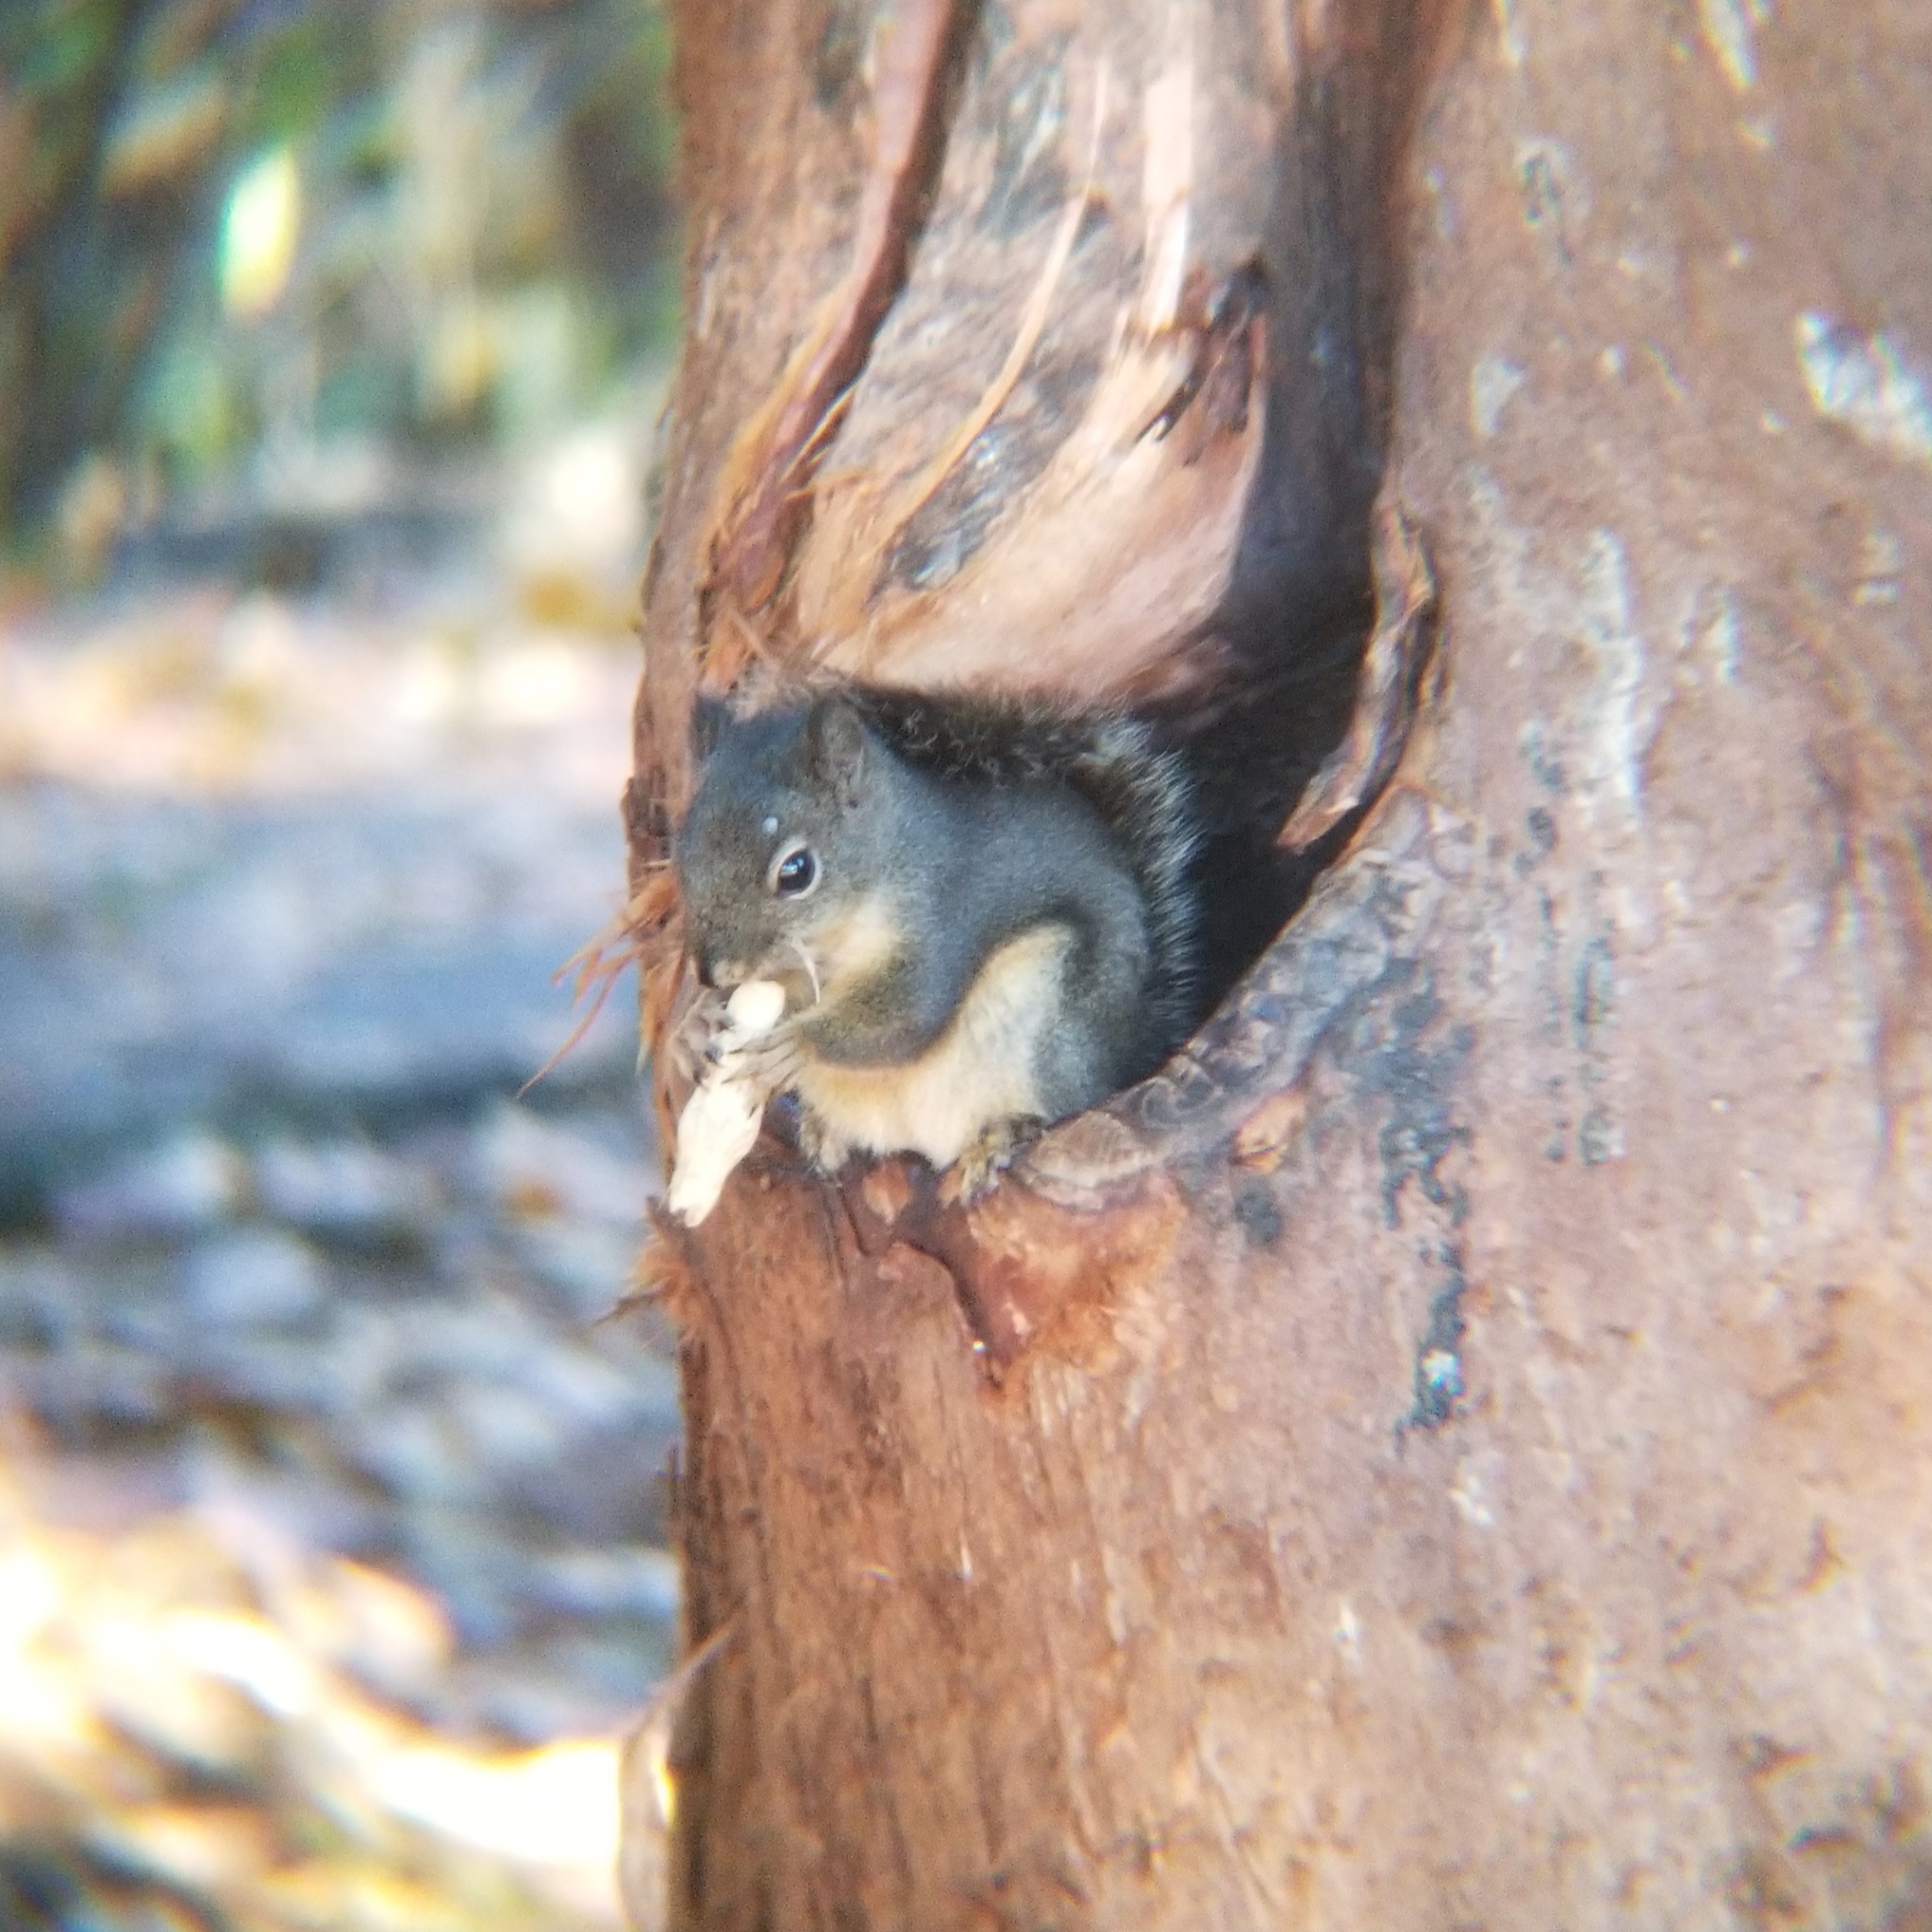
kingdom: Animalia
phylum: Chordata
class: Mammalia
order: Rodentia
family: Sciuridae
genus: Tamiasciurus
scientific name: Tamiasciurus douglasii
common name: Douglas's squirrel
